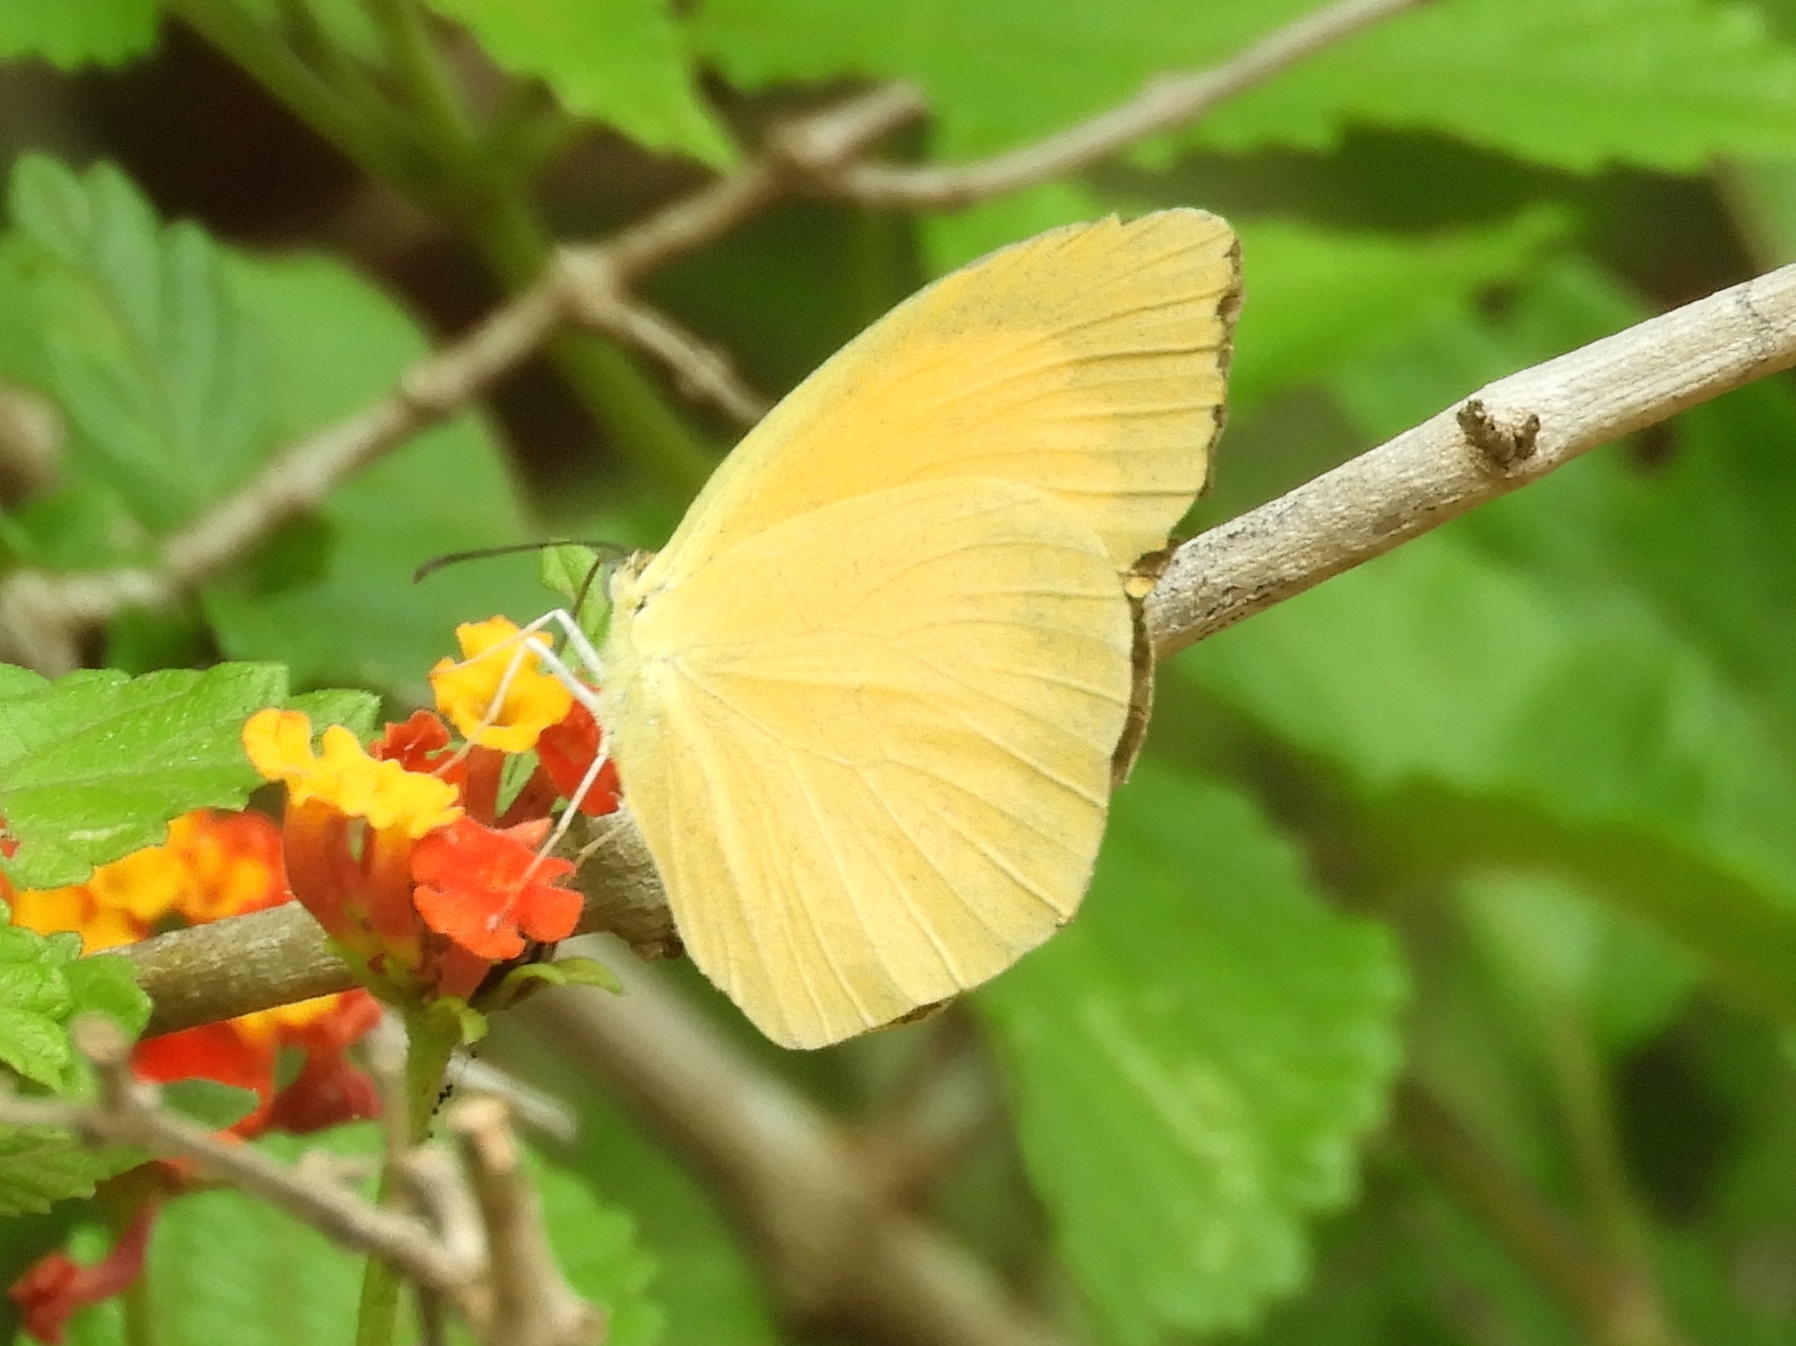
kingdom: Animalia
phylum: Arthropoda
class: Insecta
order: Lepidoptera
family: Pieridae
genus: Pyrisitia
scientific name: Pyrisitia proterpia
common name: Tailed orange
